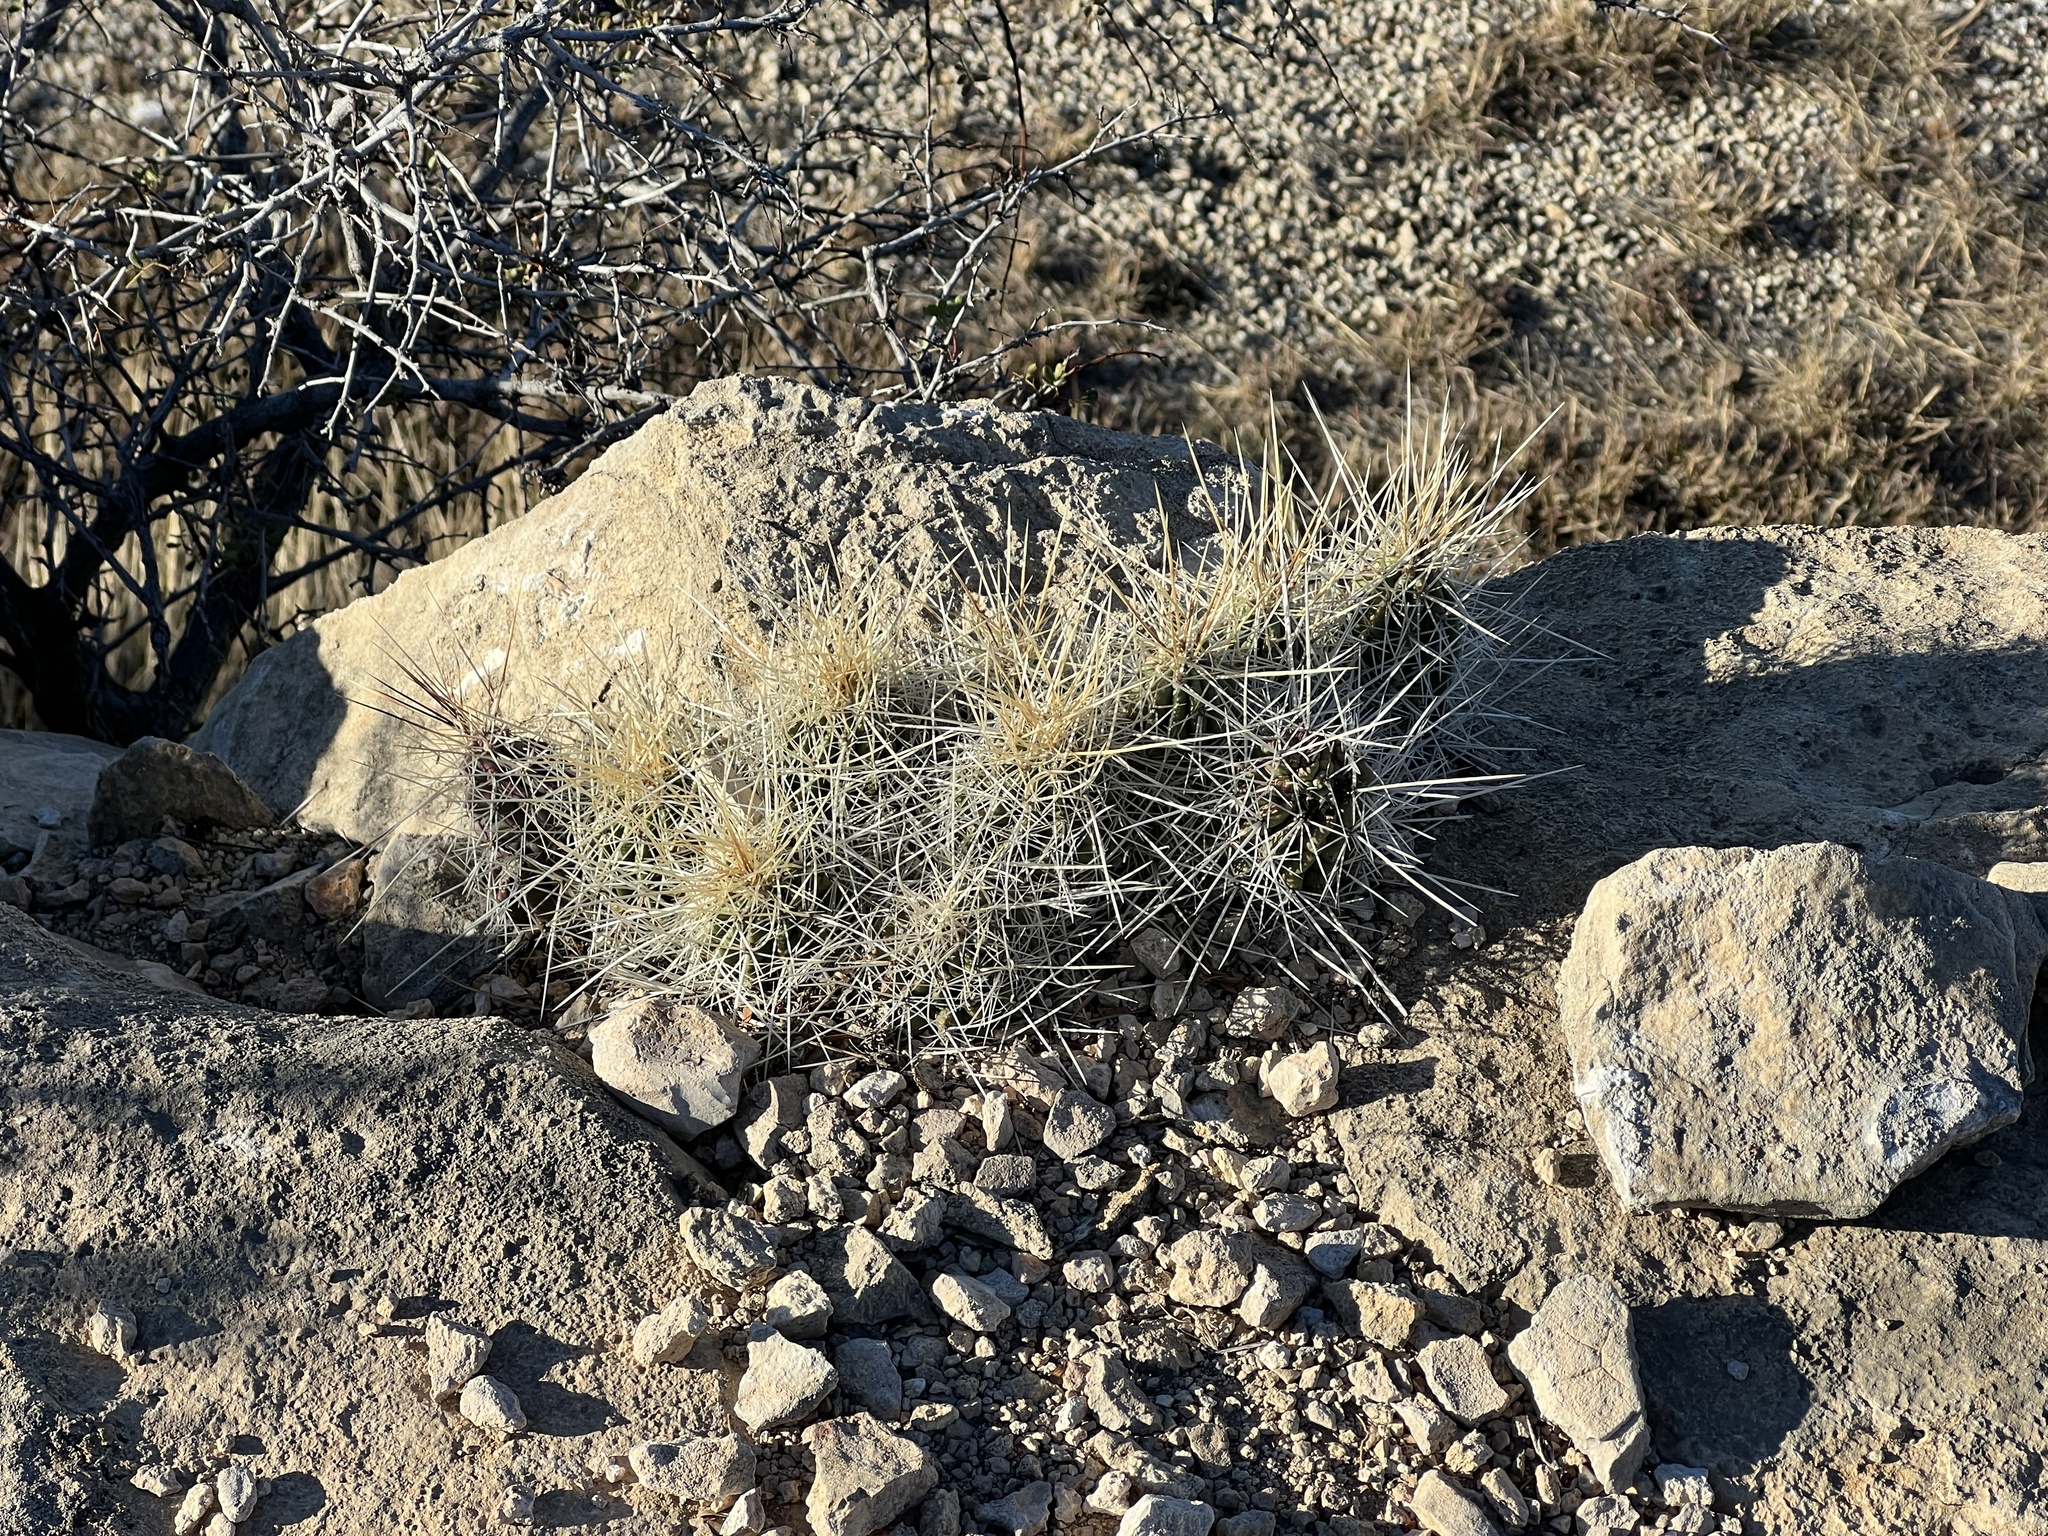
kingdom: Plantae
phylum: Tracheophyta
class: Magnoliopsida
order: Caryophyllales
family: Cactaceae
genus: Echinocereus
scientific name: Echinocereus stramineus
